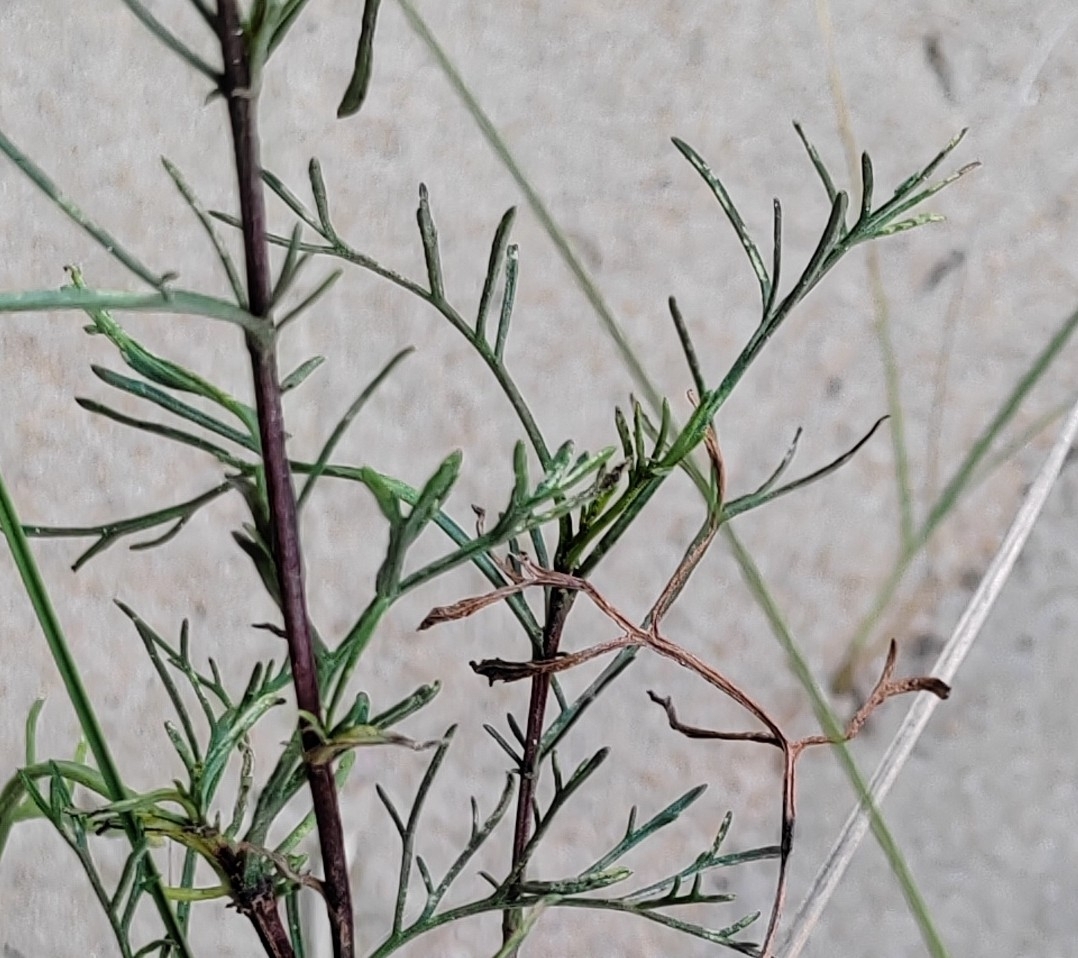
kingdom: Plantae
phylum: Tracheophyta
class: Magnoliopsida
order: Asterales
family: Asteraceae
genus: Artemisia
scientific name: Artemisia arenaria
